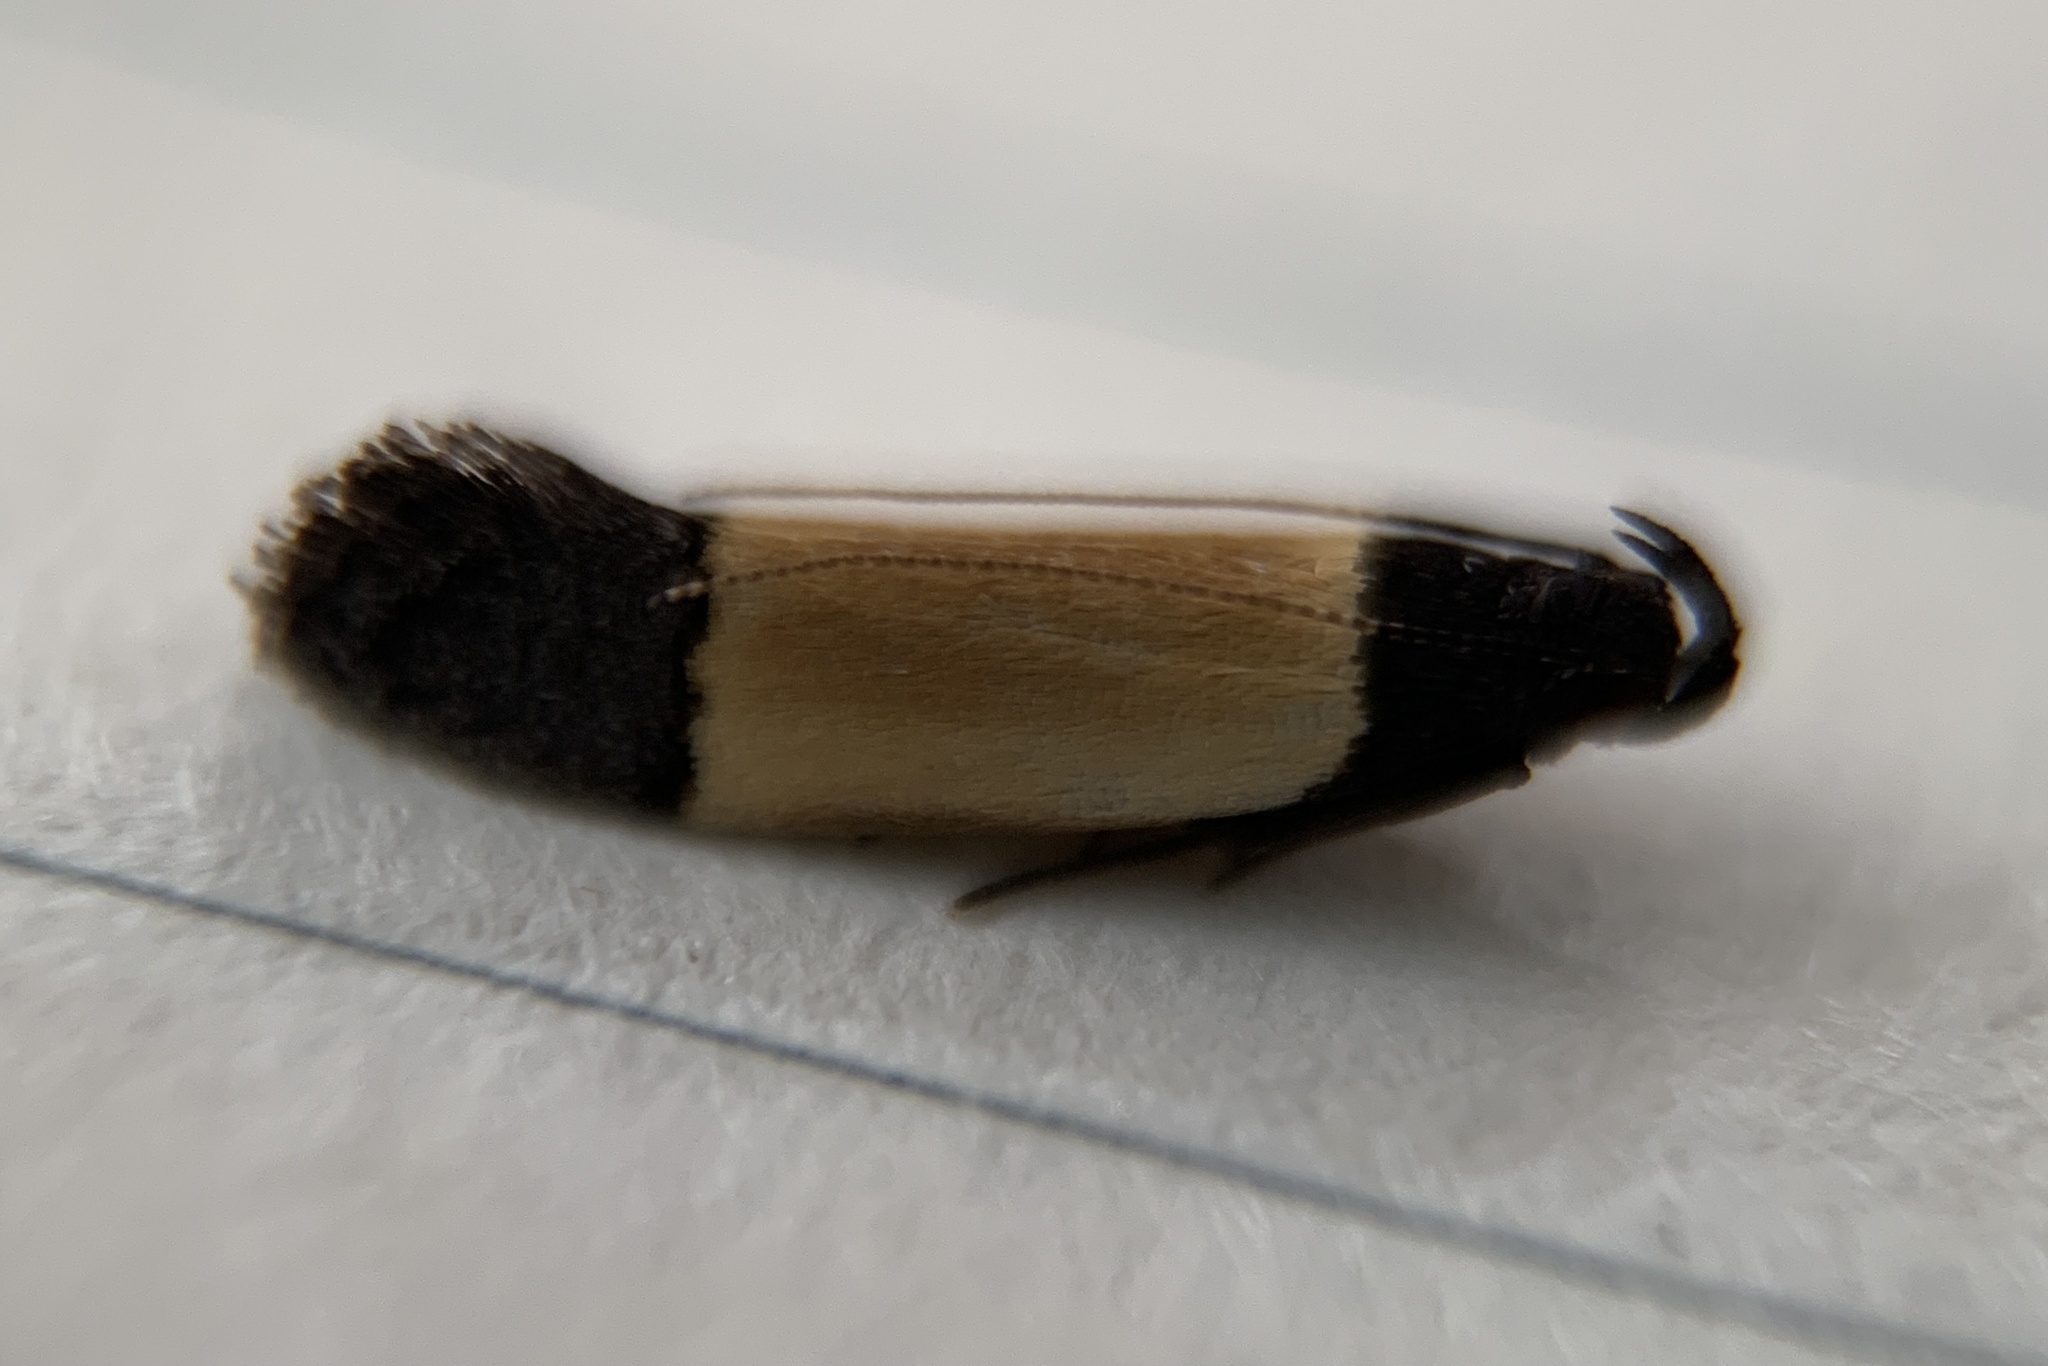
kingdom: Animalia
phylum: Arthropoda
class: Insecta
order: Lepidoptera
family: Gelechiidae
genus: Anacampsis
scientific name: Anacampsis coverdalella
